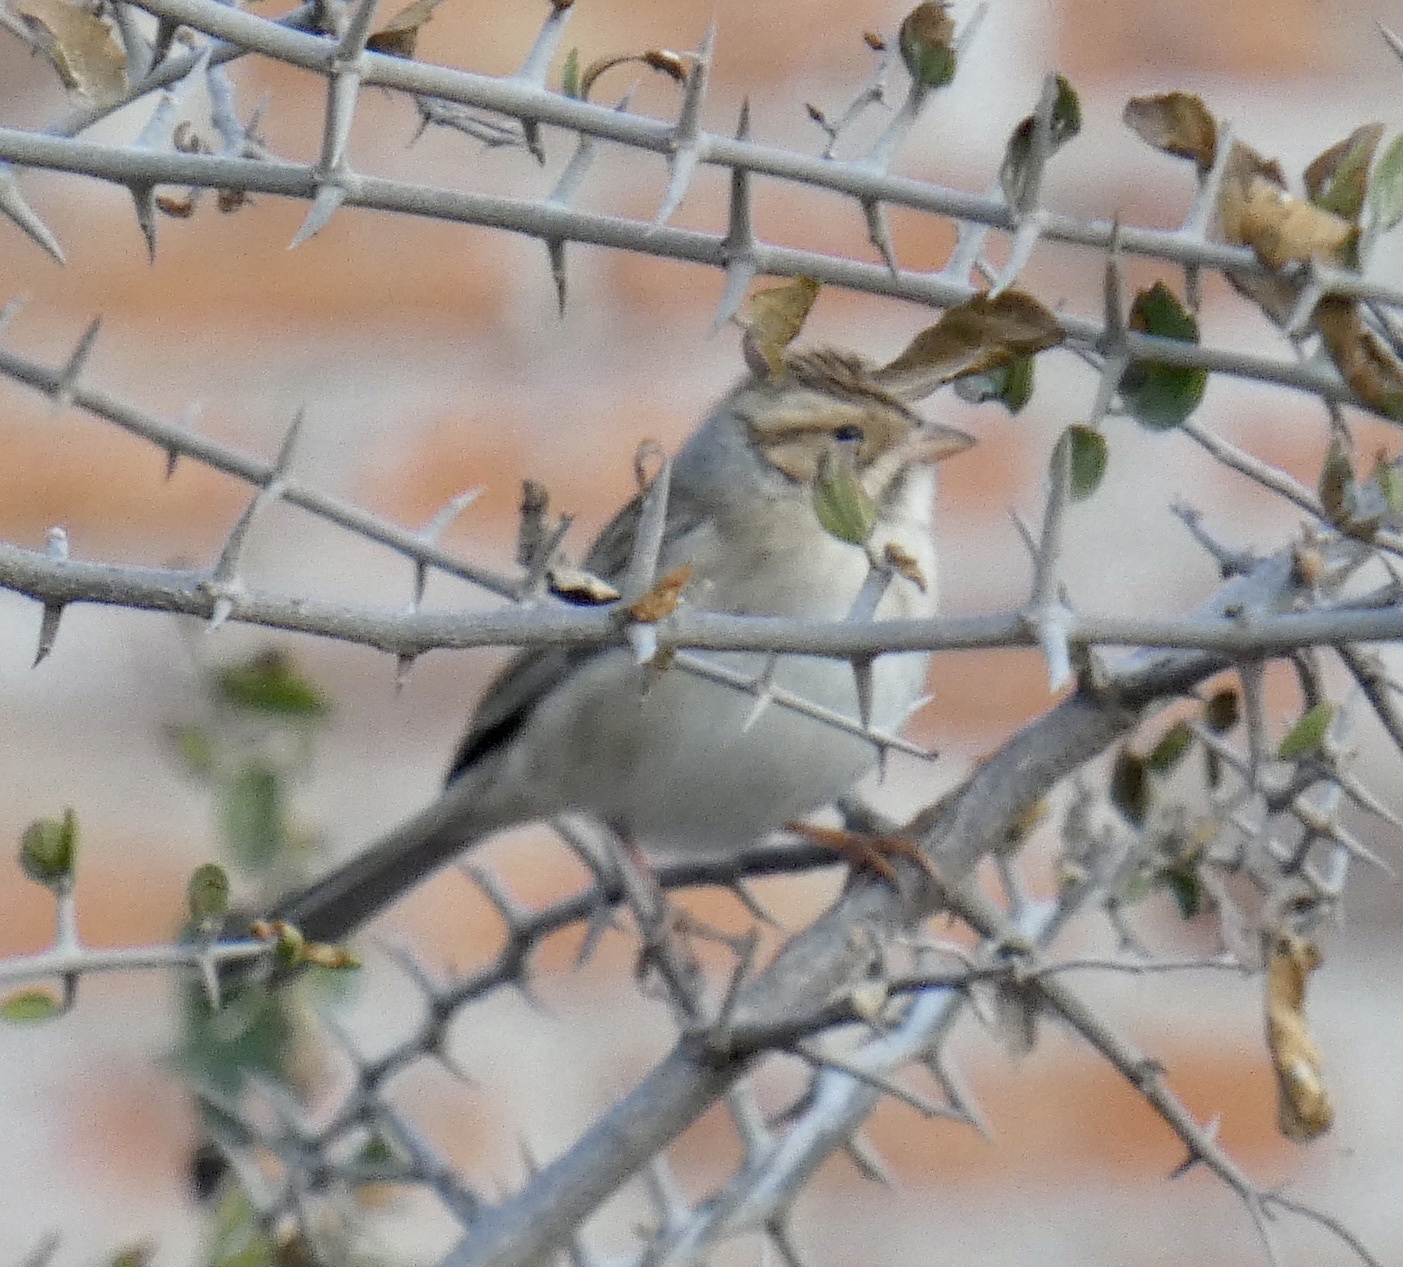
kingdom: Animalia
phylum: Chordata
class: Aves
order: Passeriformes
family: Passerellidae
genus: Spizella
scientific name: Spizella pallida
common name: Clay-colored sparrow
